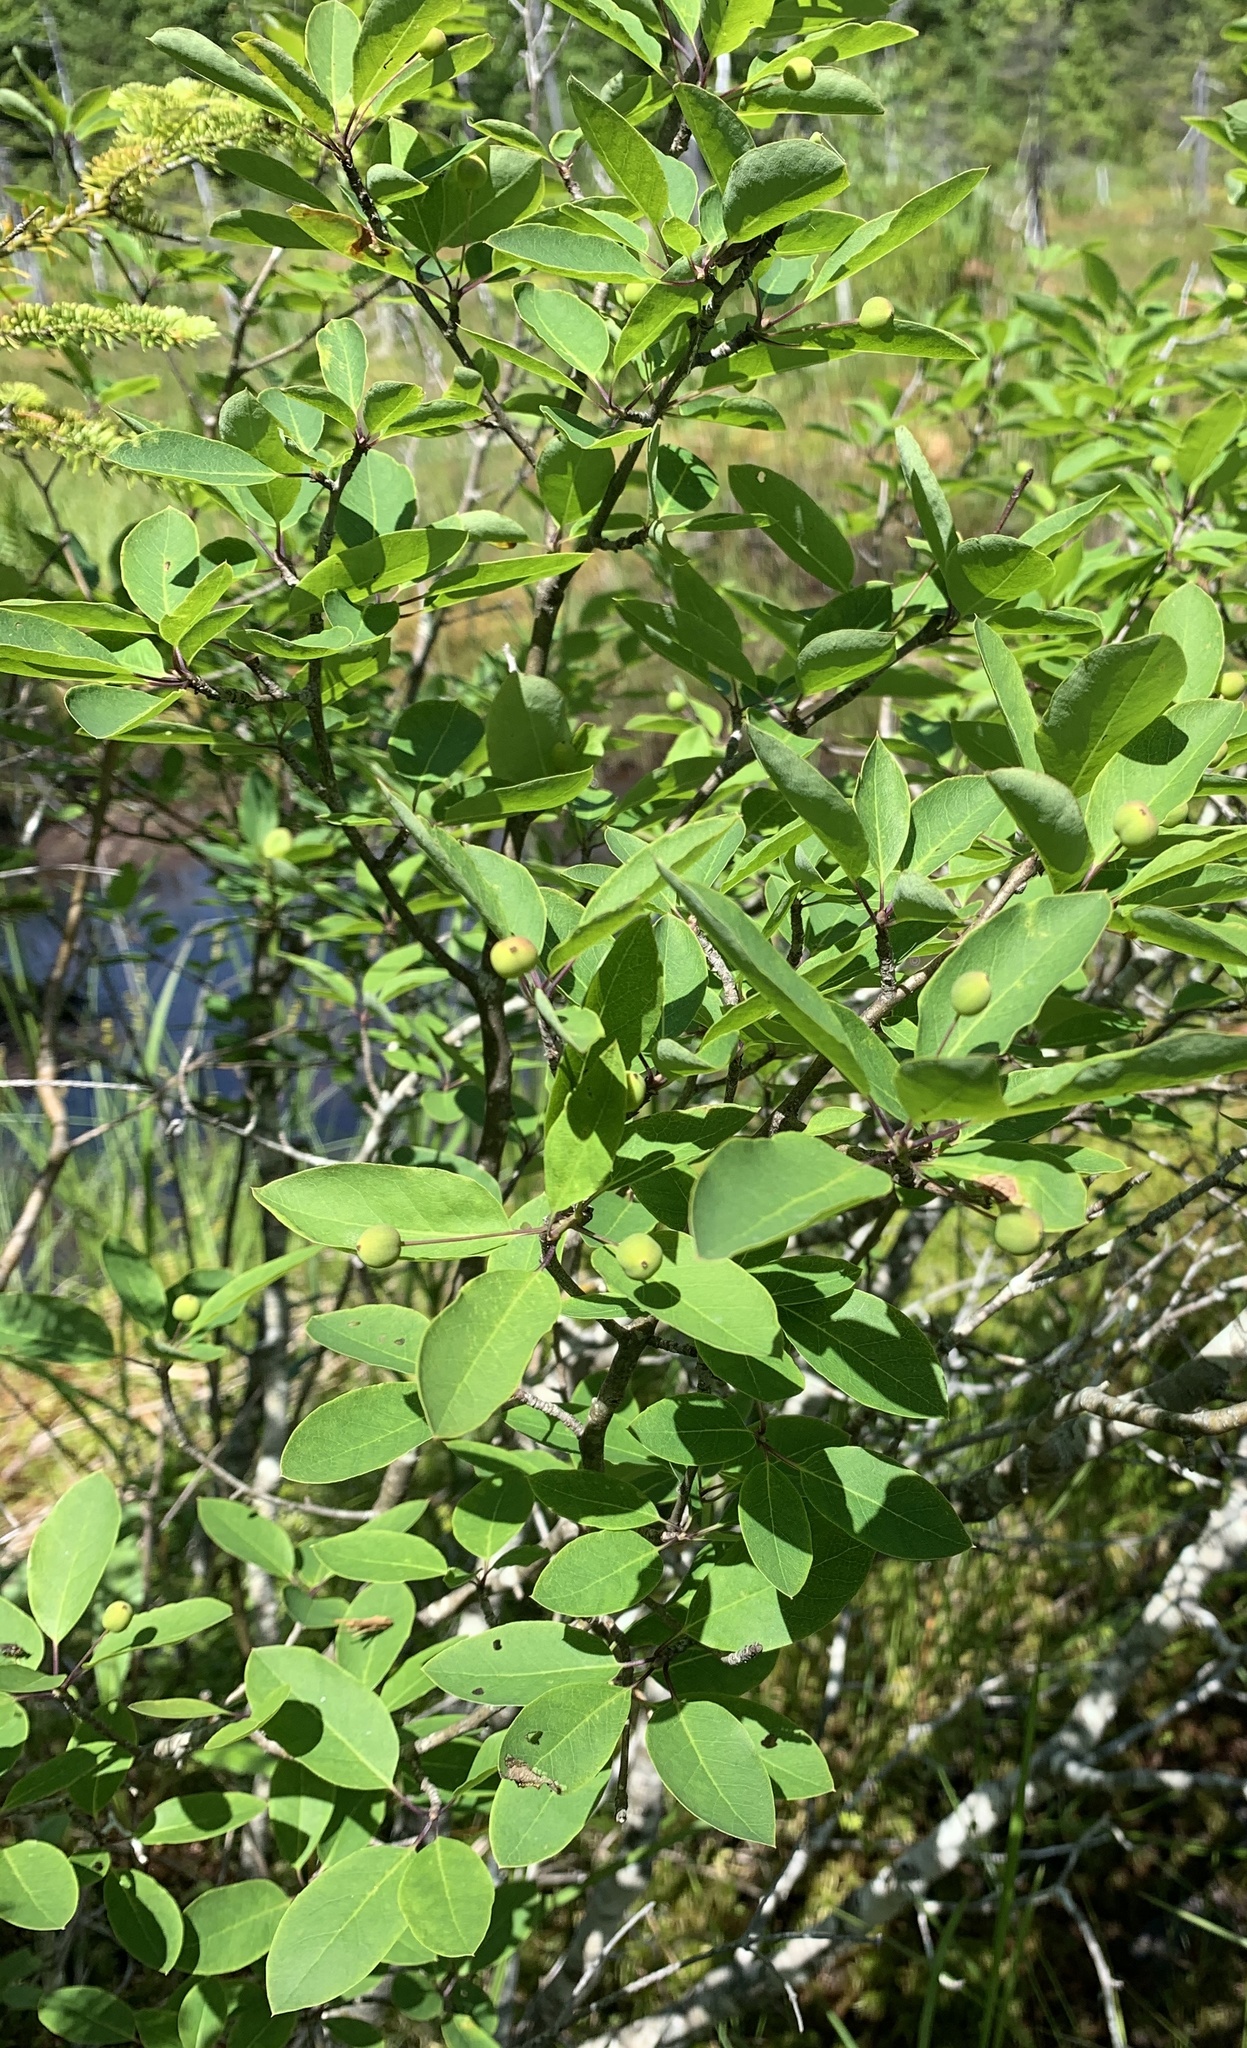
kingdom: Plantae
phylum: Tracheophyta
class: Magnoliopsida
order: Aquifoliales
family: Aquifoliaceae
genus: Ilex
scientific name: Ilex mucronata
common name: Catberry
